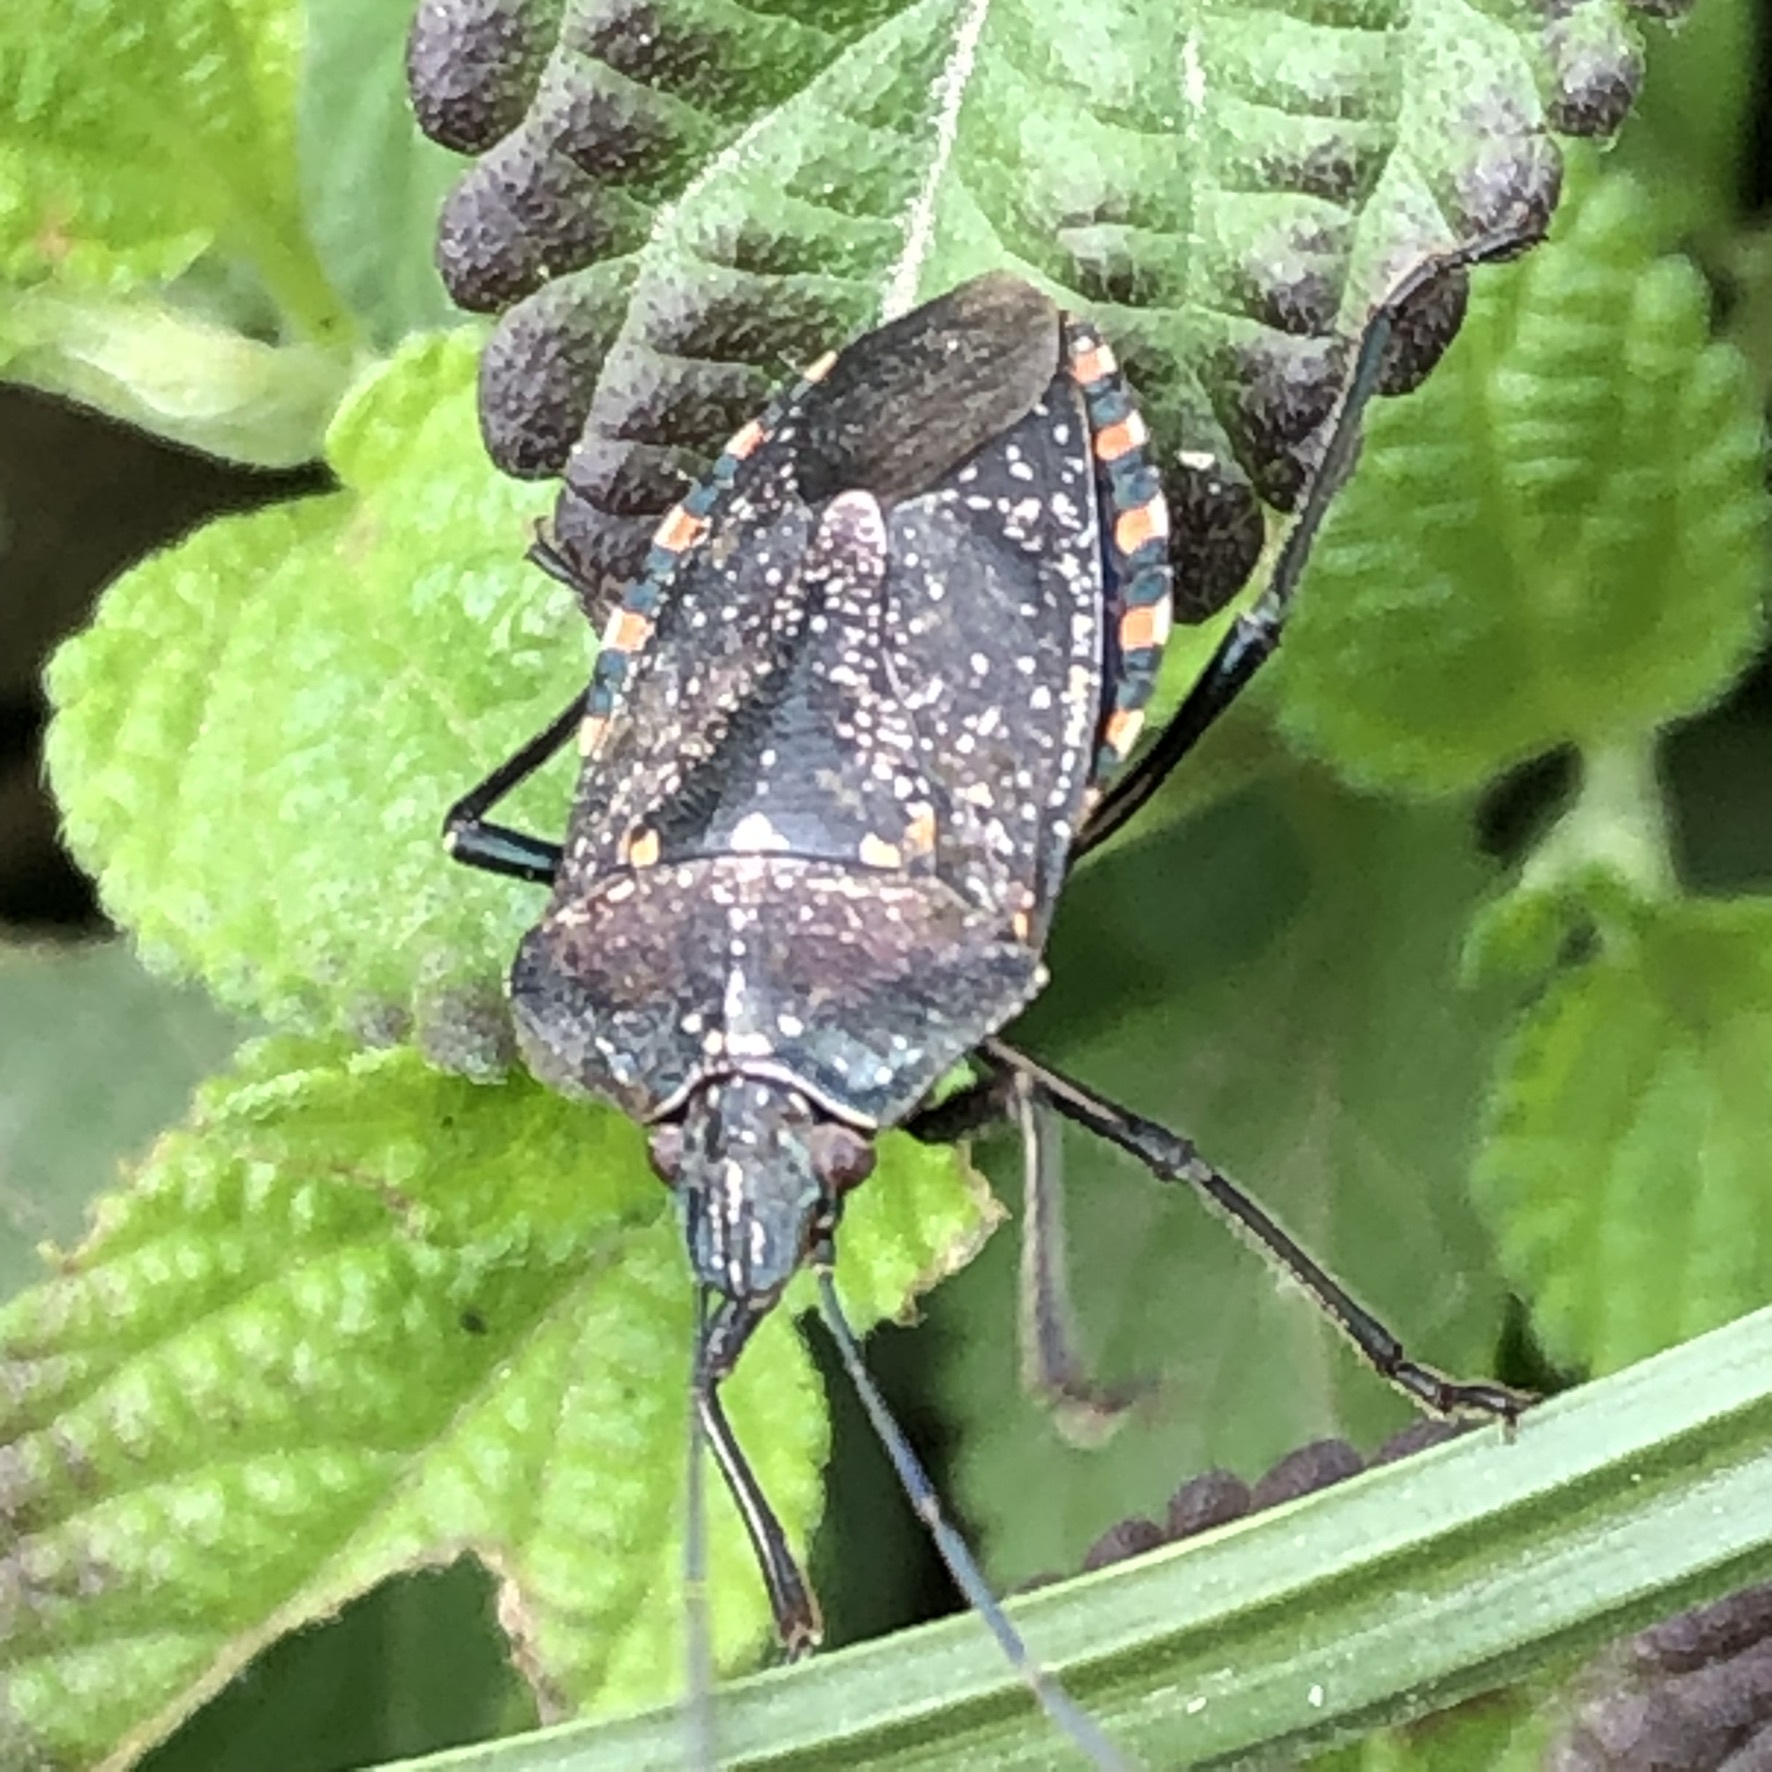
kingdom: Animalia
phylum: Arthropoda
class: Insecta
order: Hemiptera
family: Pentatomidae
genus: Pellaea
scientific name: Pellaea stictica
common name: Stink bug
